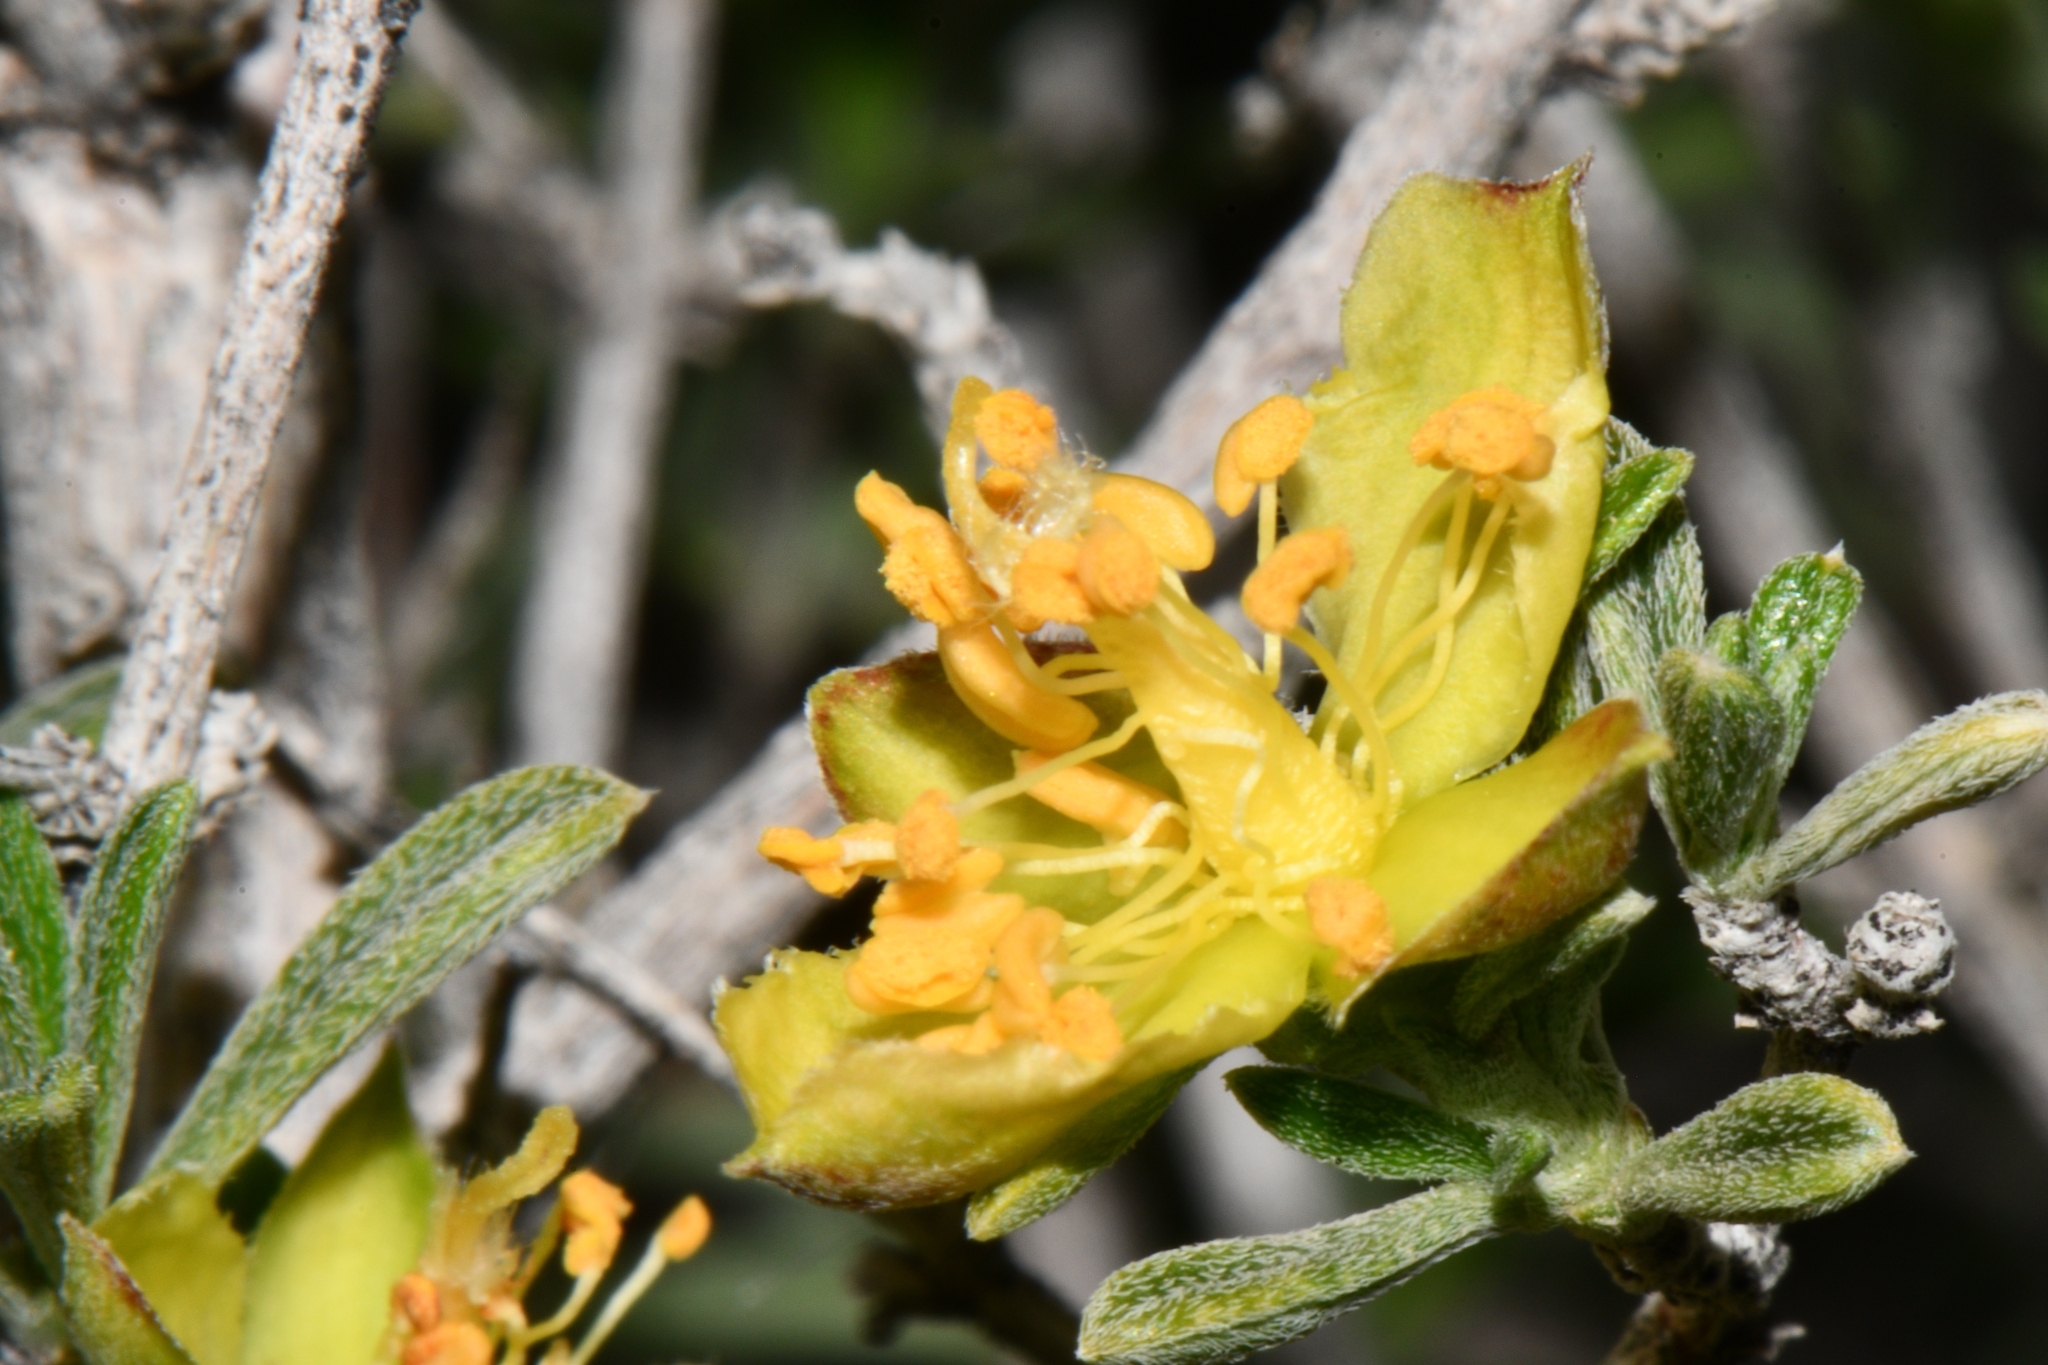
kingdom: Plantae
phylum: Tracheophyta
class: Magnoliopsida
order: Rosales
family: Rosaceae
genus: Coleogyne
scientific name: Coleogyne ramosissima
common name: Blackbrush
